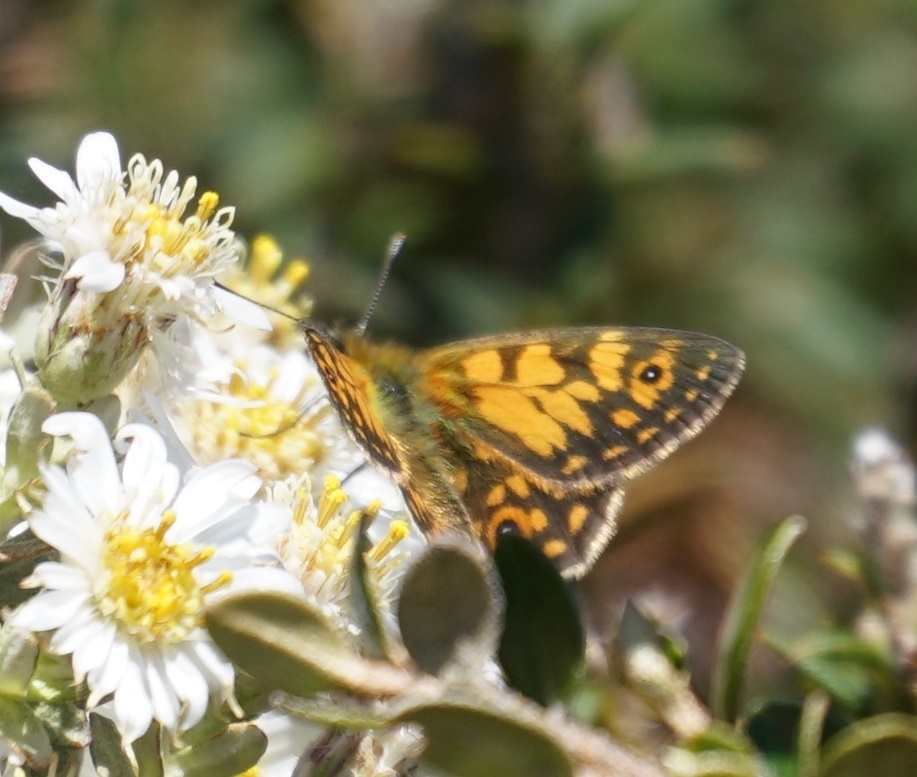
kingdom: Animalia
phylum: Arthropoda
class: Insecta
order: Lepidoptera
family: Nymphalidae
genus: Oreixenica
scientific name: Oreixenica orichora
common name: Orichora brown
